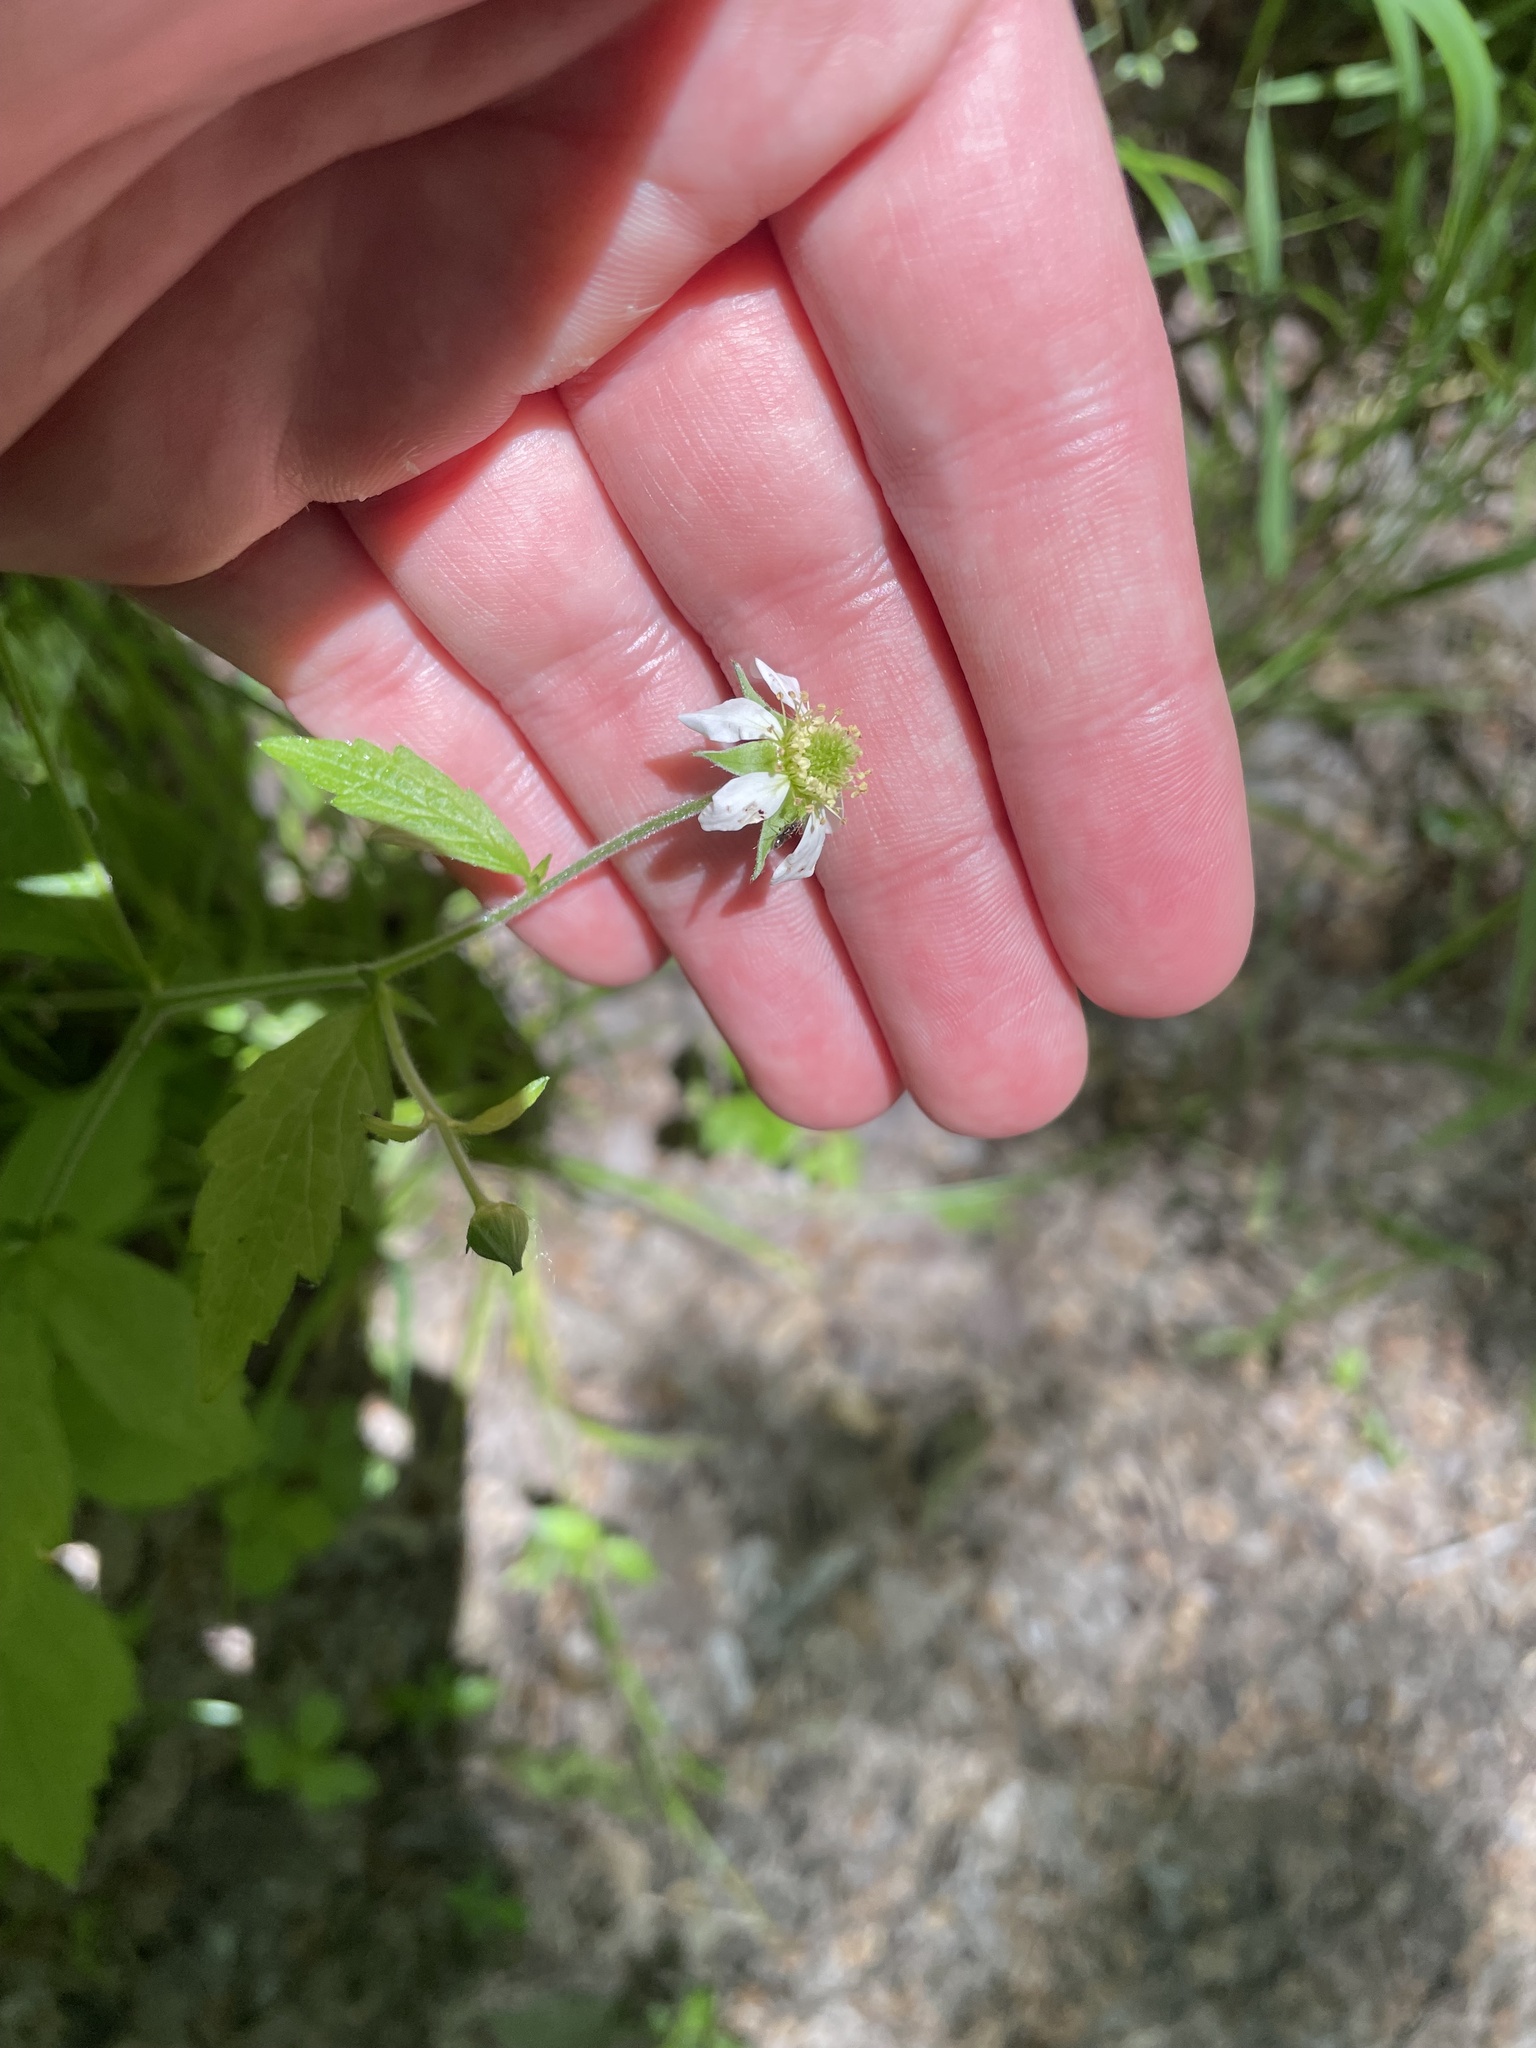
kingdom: Plantae
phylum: Tracheophyta
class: Magnoliopsida
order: Rosales
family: Rosaceae
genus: Geum
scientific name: Geum canadense
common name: White avens
